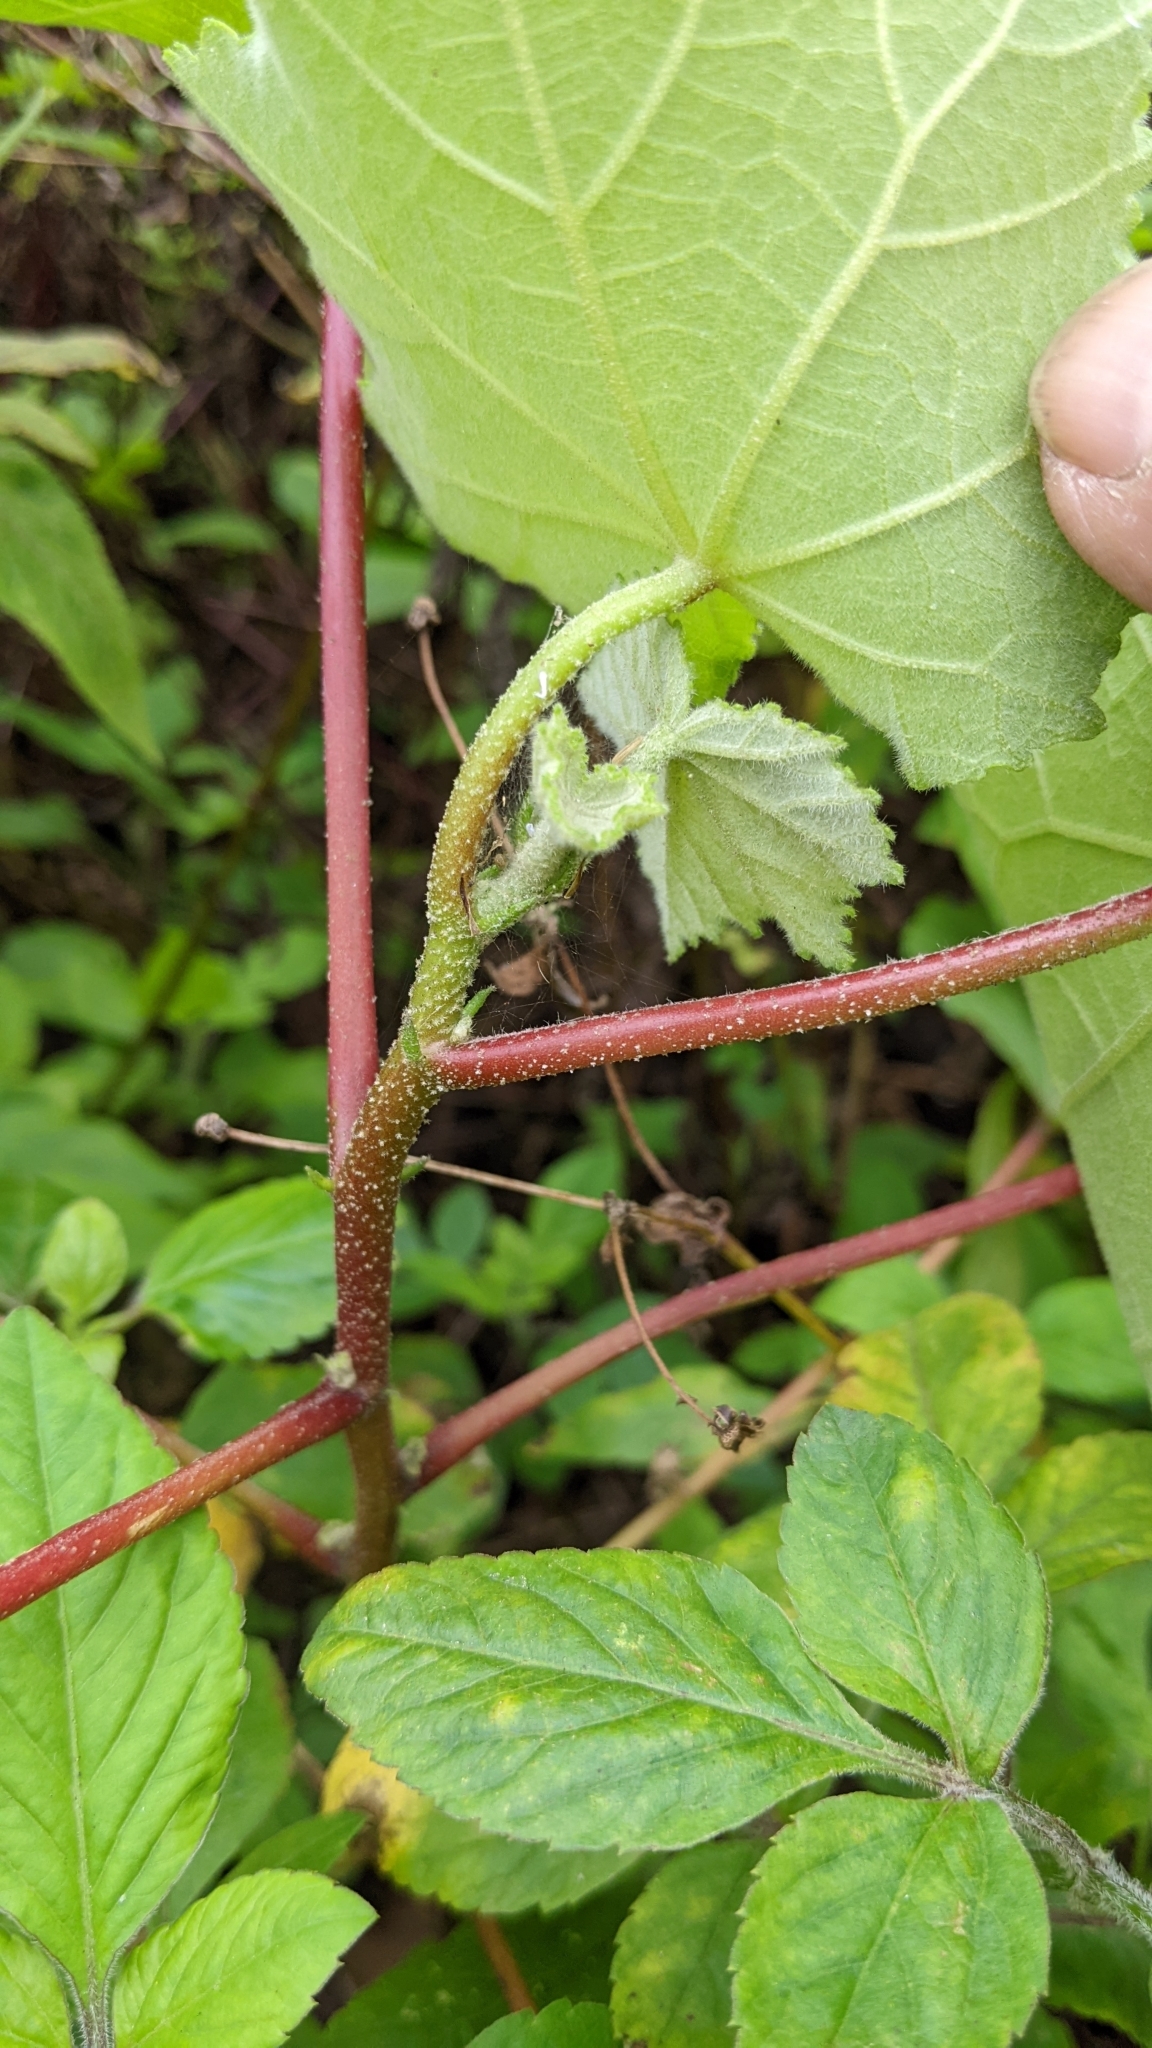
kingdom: Plantae
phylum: Tracheophyta
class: Magnoliopsida
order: Malvales
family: Malvaceae
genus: Hibiscus
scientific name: Hibiscus makinoi
